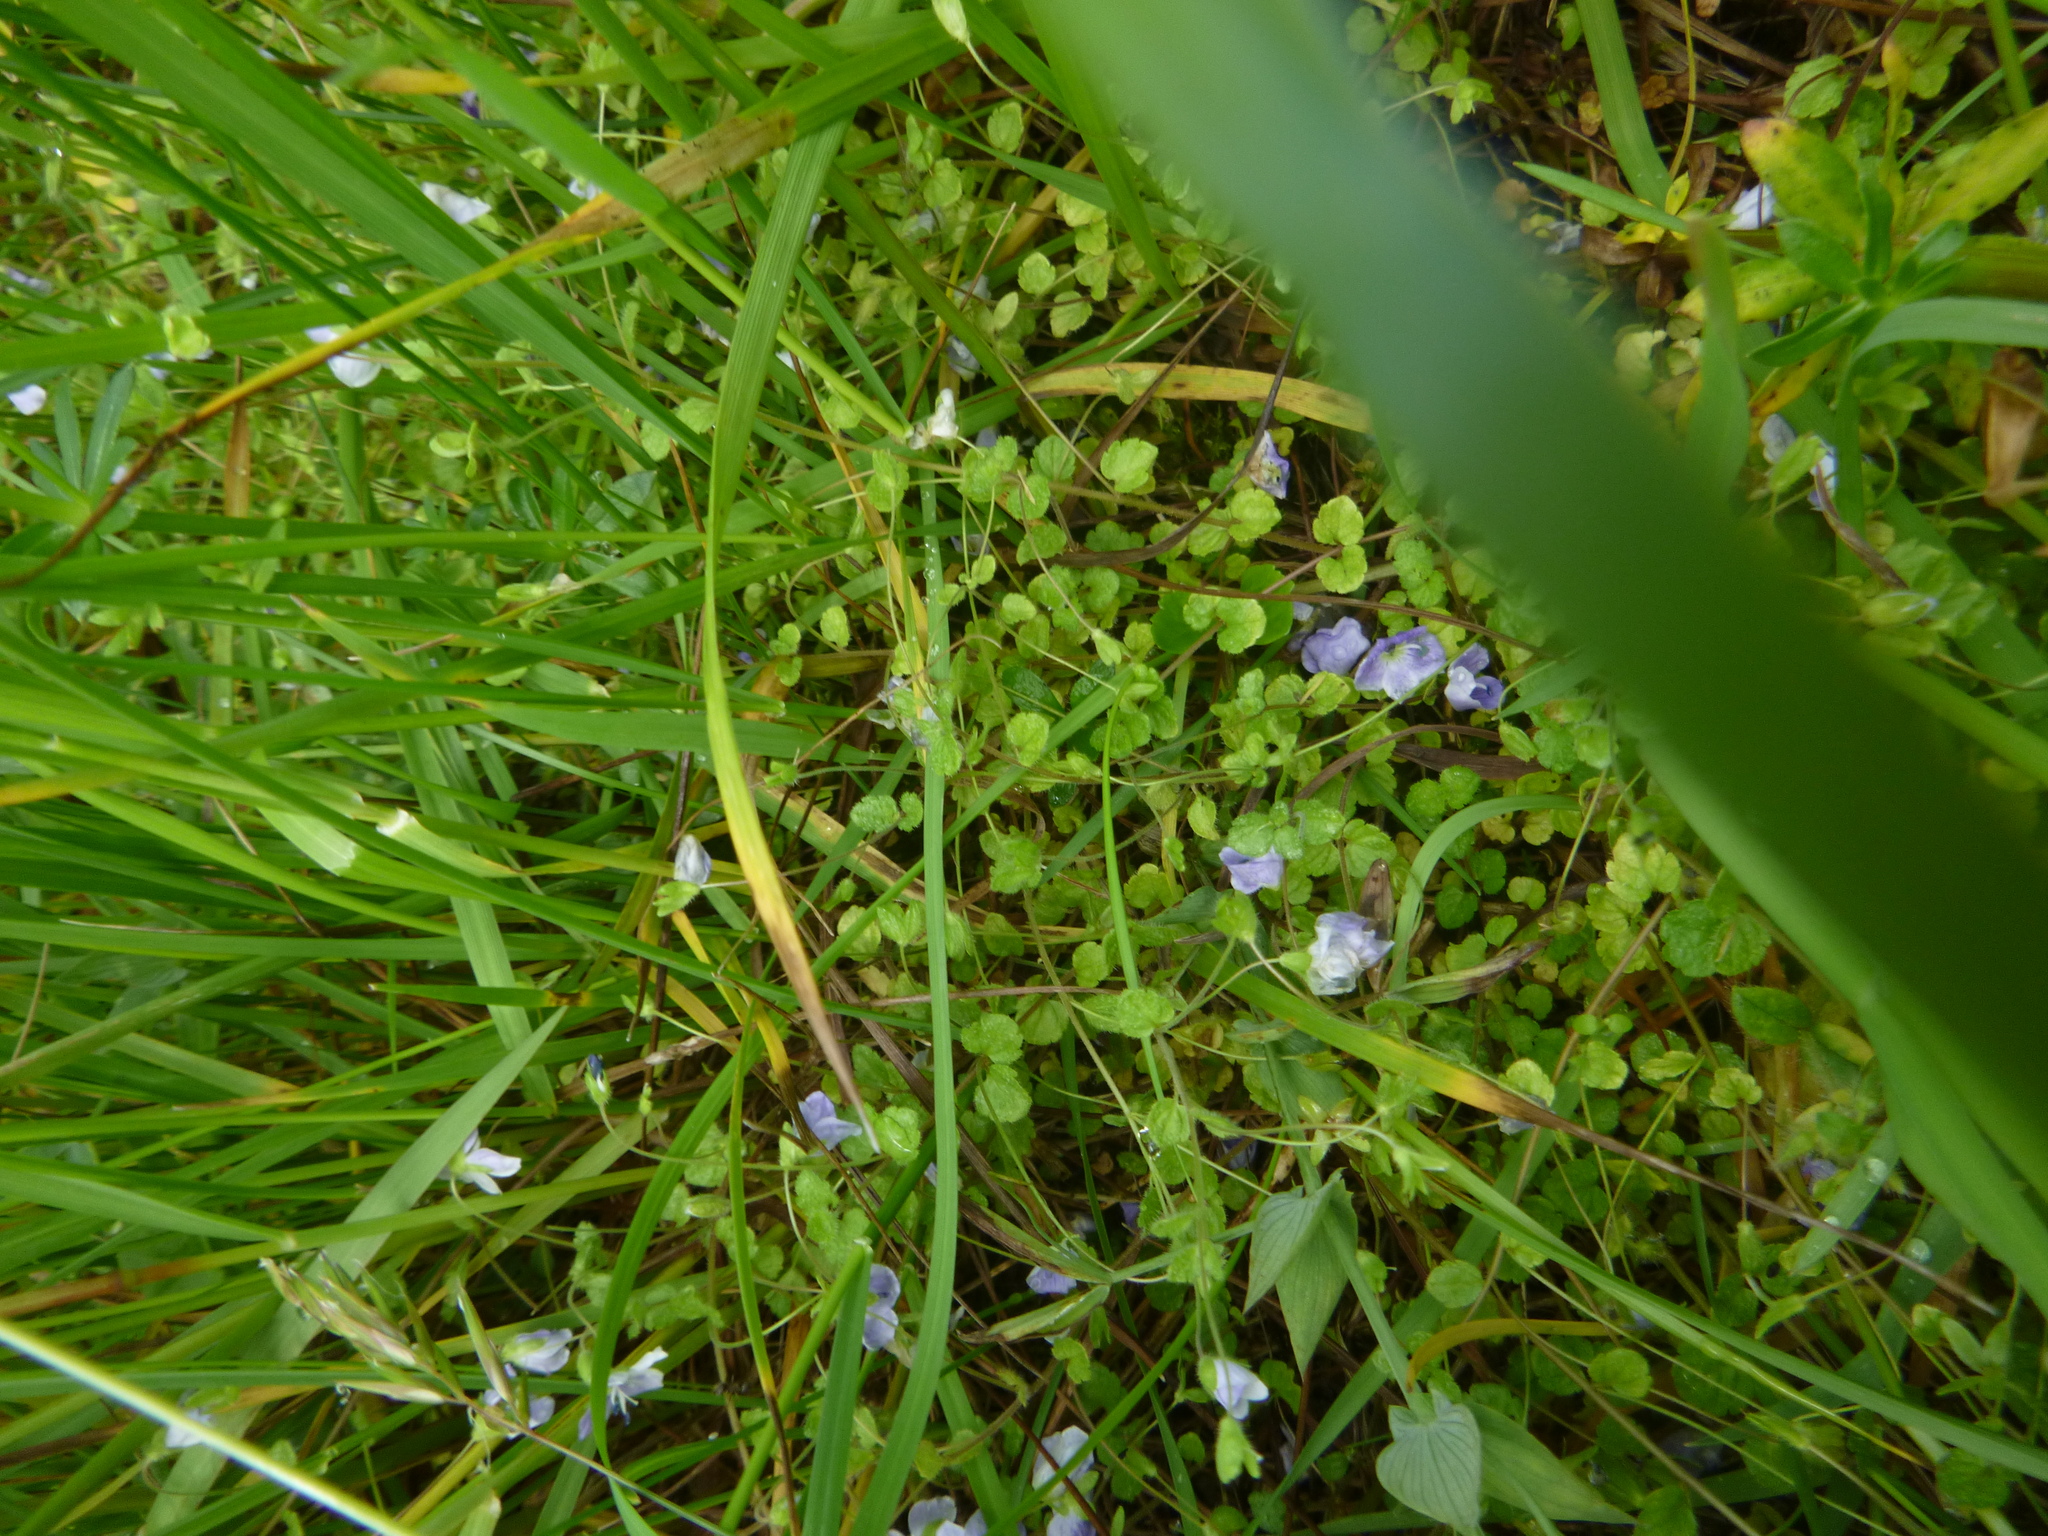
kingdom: Plantae
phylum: Tracheophyta
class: Magnoliopsida
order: Lamiales
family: Plantaginaceae
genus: Veronica
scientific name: Veronica filiformis
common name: Slender speedwell
